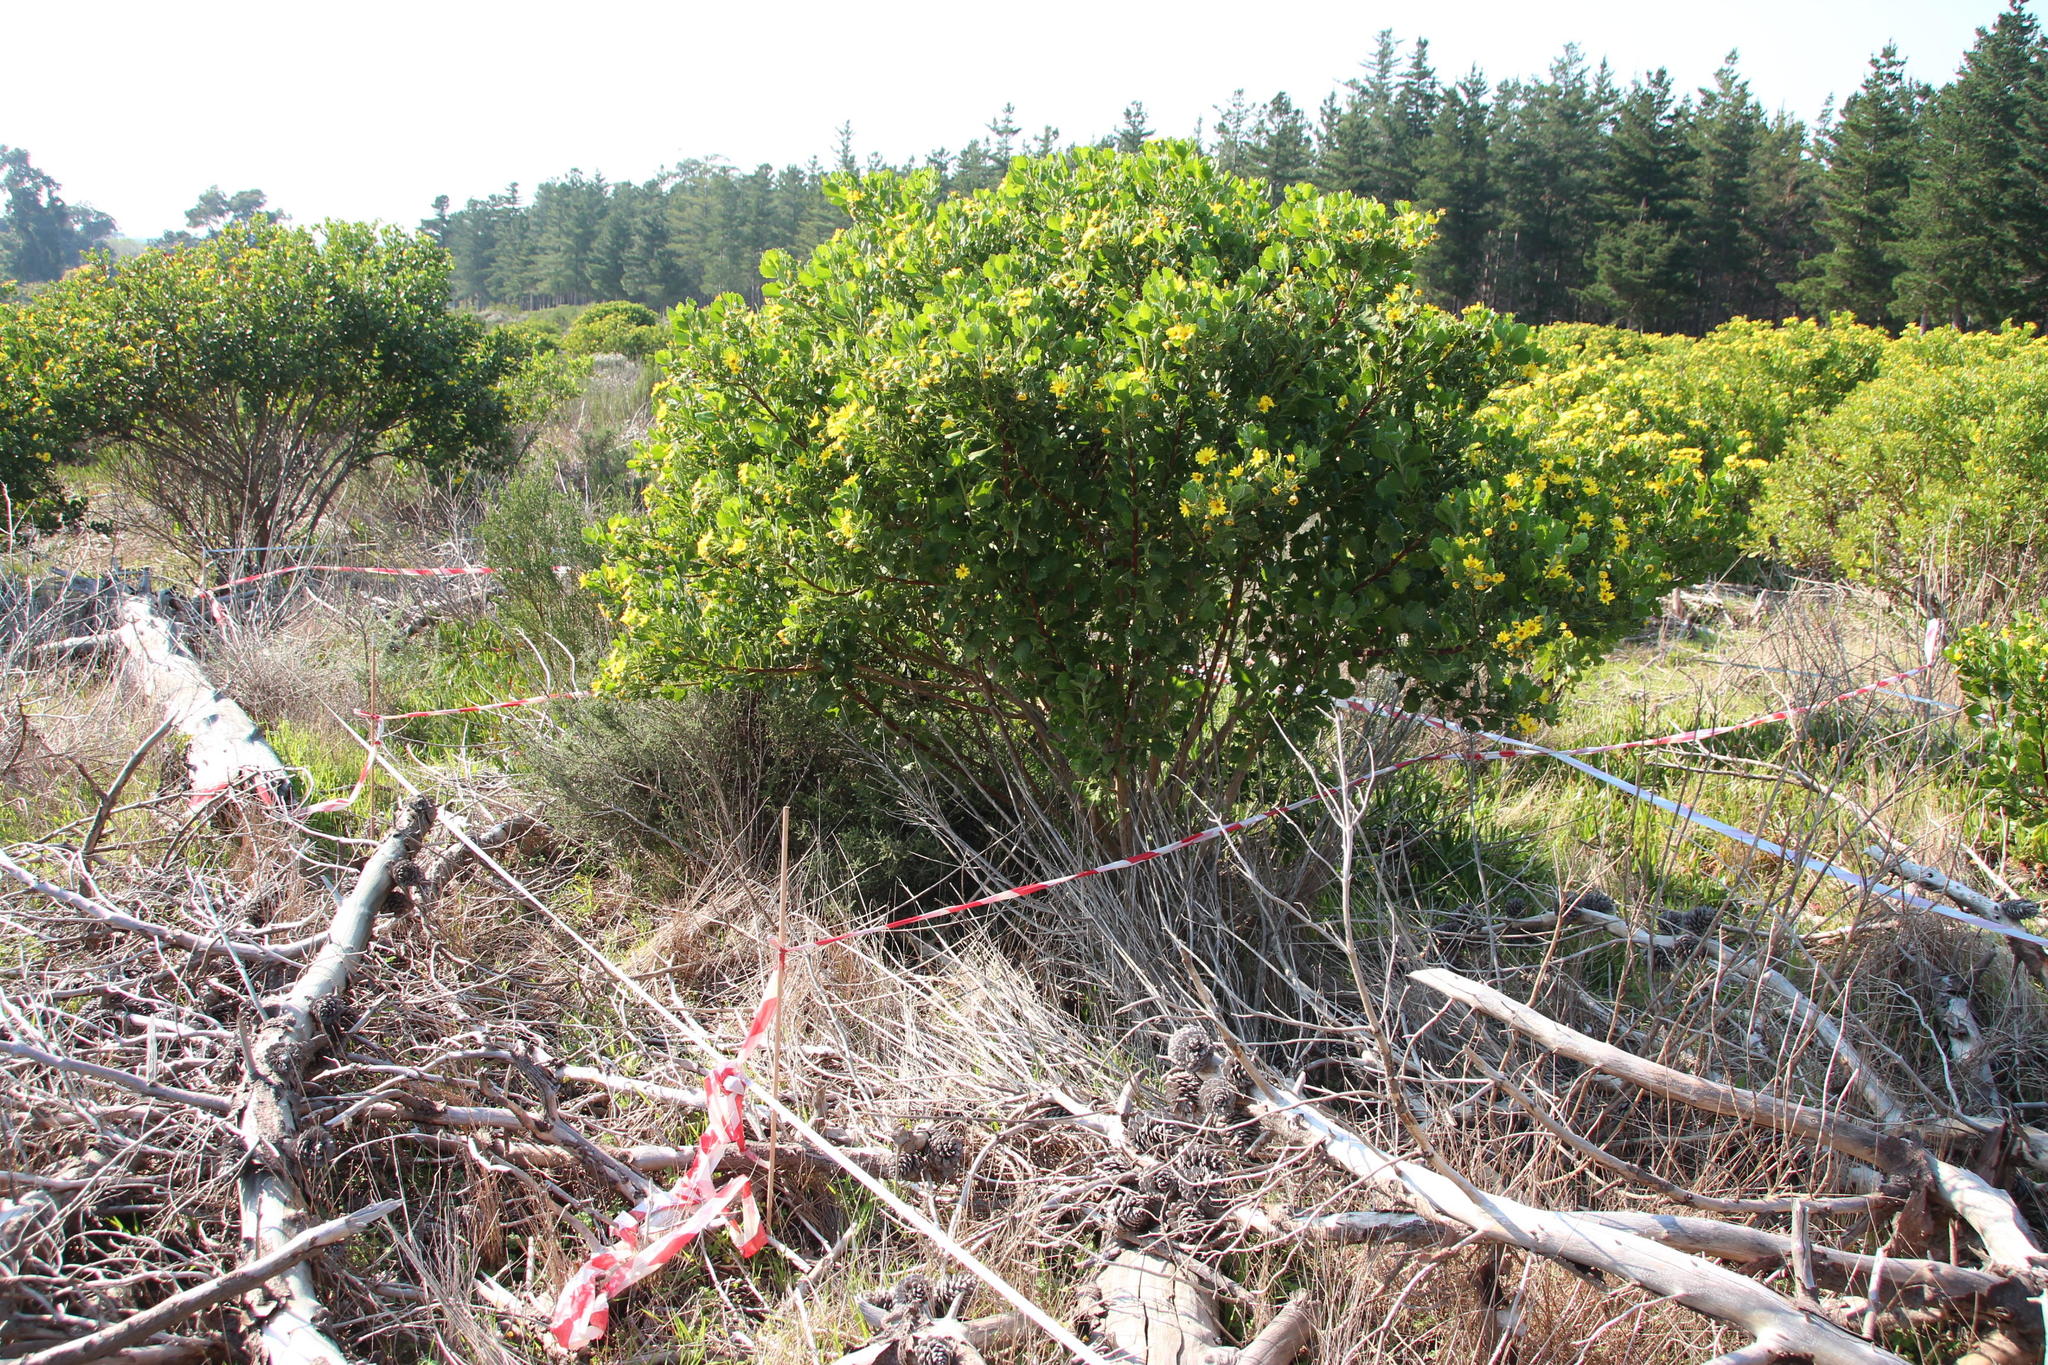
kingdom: Plantae
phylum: Tracheophyta
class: Magnoliopsida
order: Asterales
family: Asteraceae
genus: Osteospermum
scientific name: Osteospermum moniliferum
